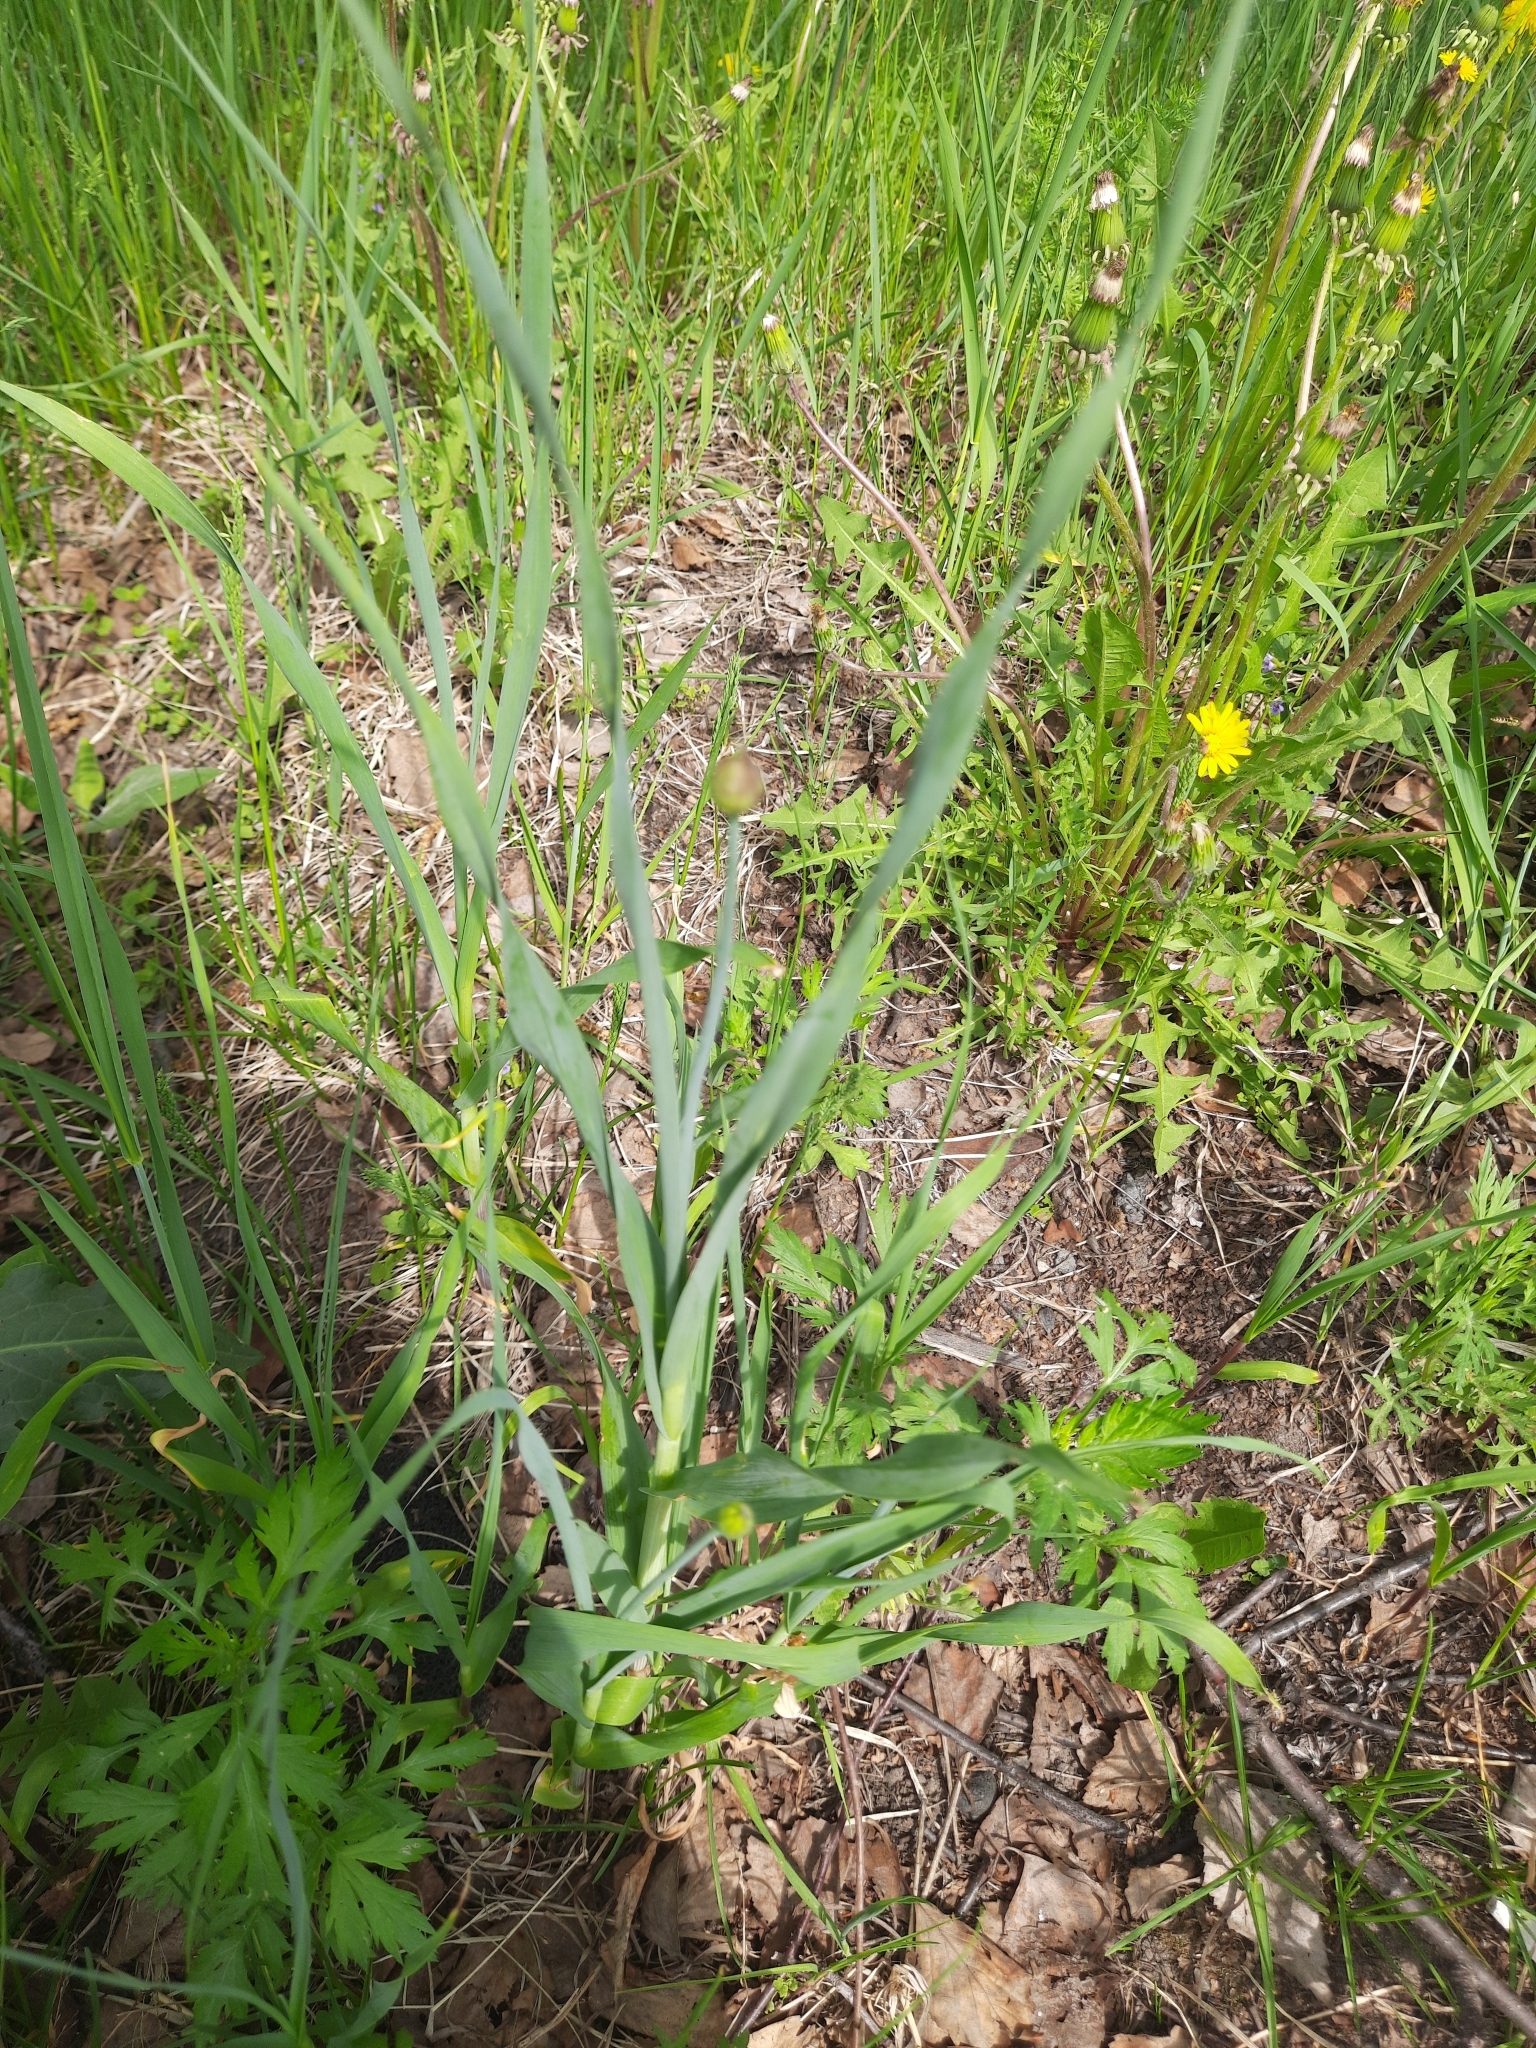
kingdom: Plantae
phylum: Tracheophyta
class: Liliopsida
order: Asparagales
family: Amaryllidaceae
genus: Allium
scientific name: Allium obliquum
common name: Oblique onion
